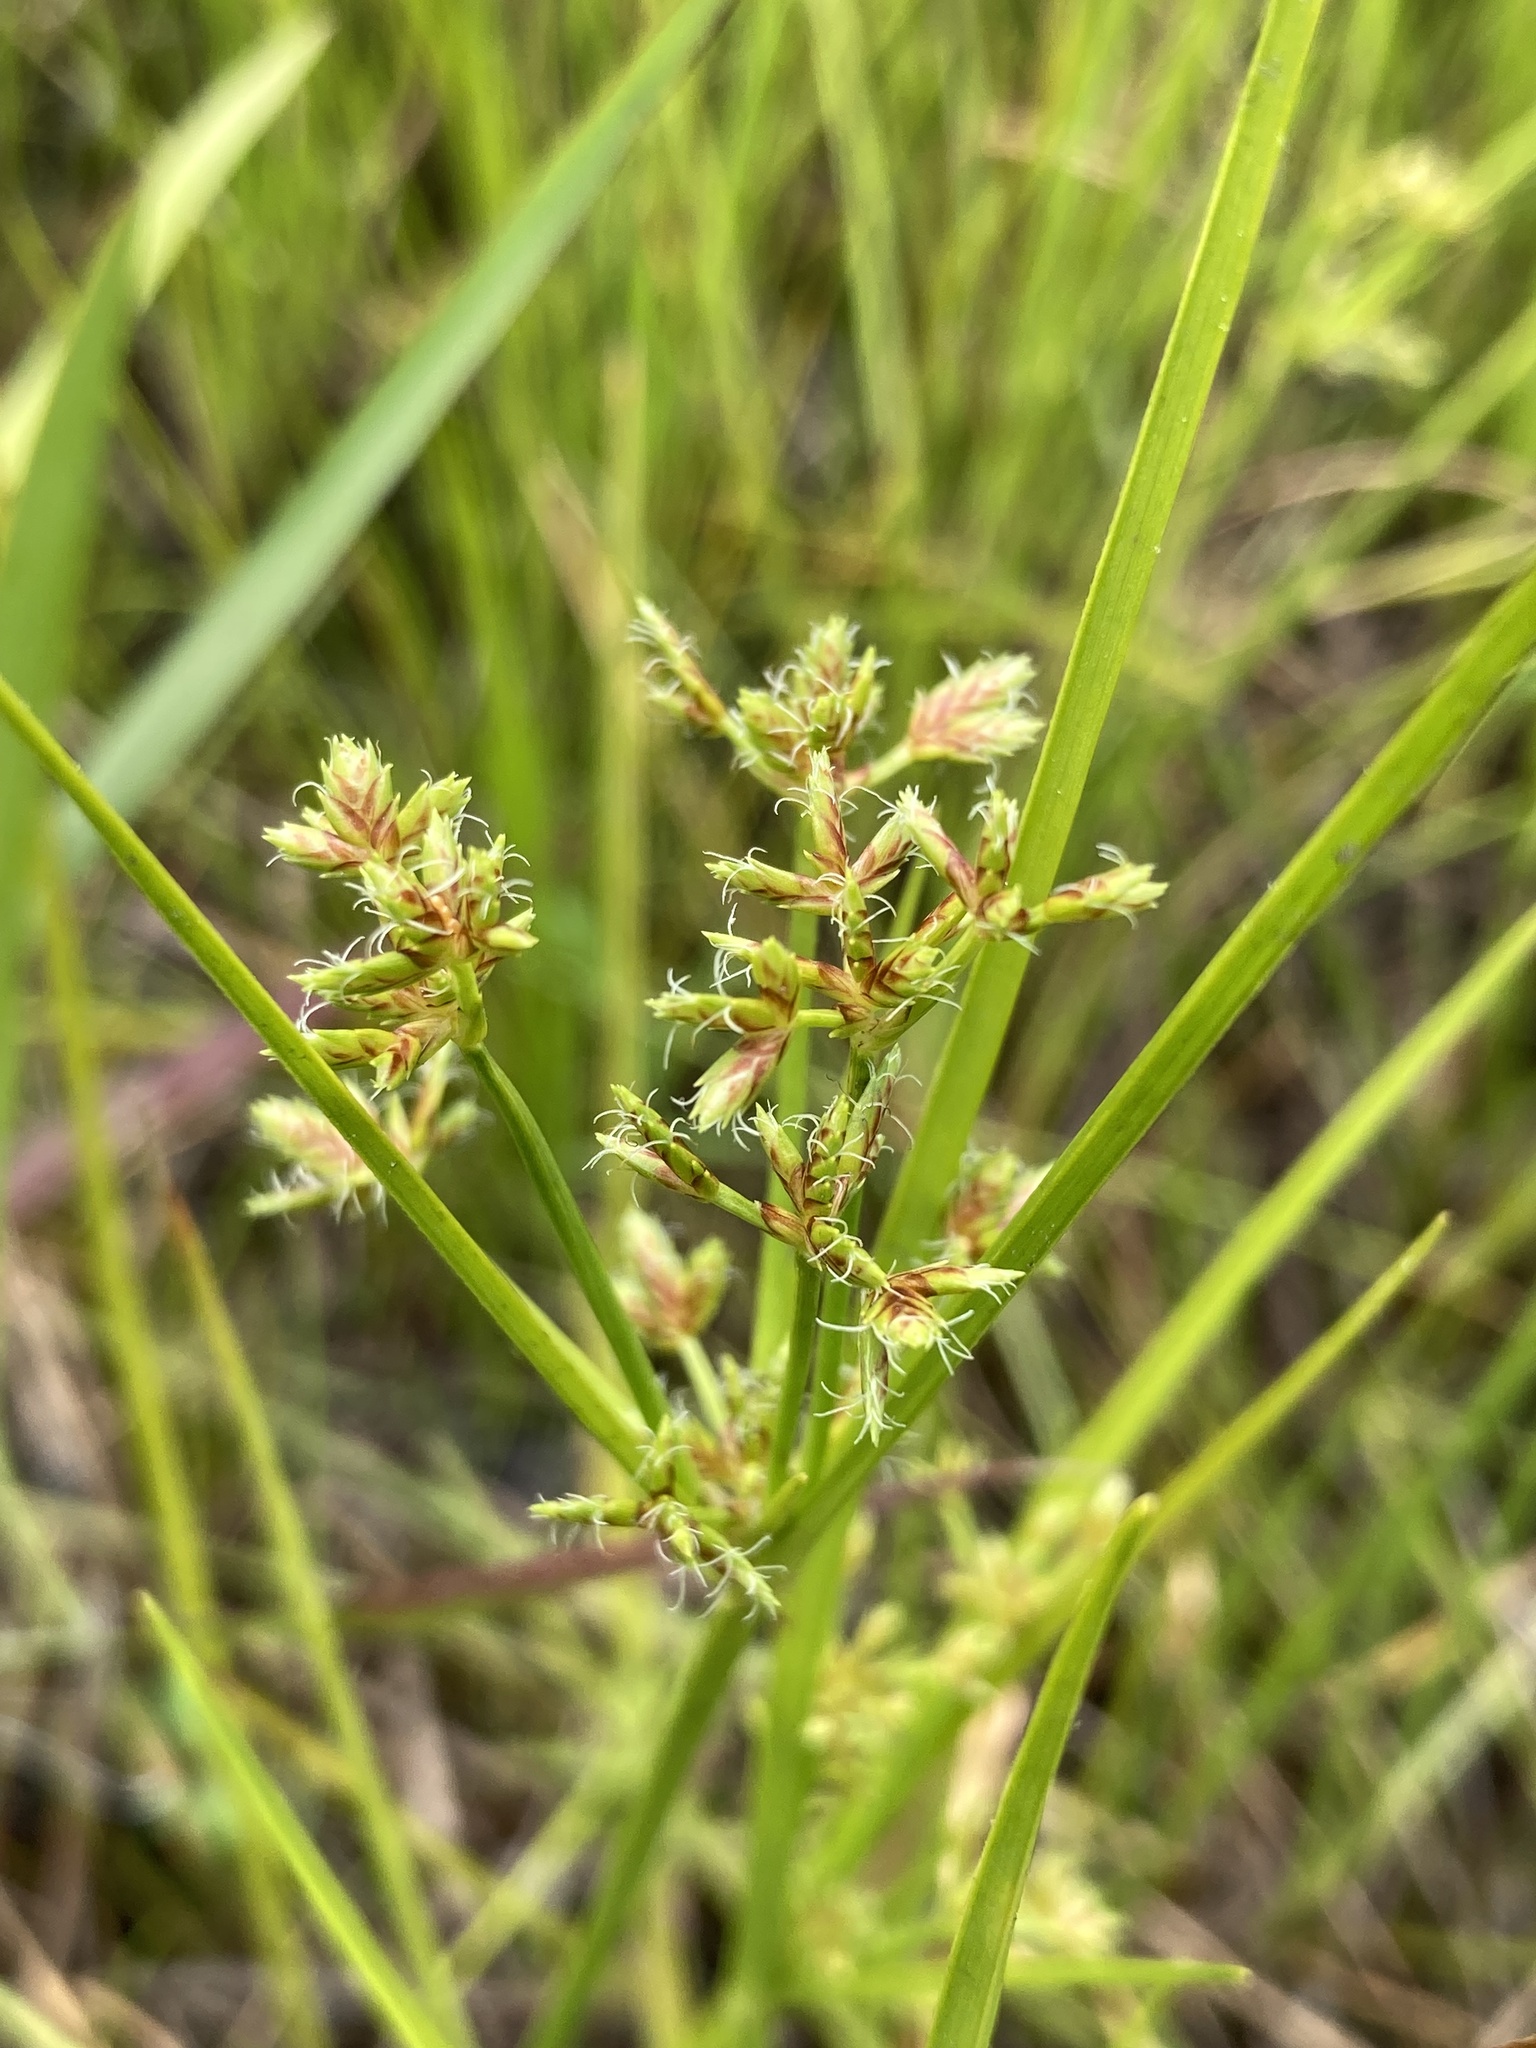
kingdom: Plantae
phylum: Tracheophyta
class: Liliopsida
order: Poales
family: Cyperaceae
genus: Cyperus
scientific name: Cyperus dentatus
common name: Dentate umbrella sedge
